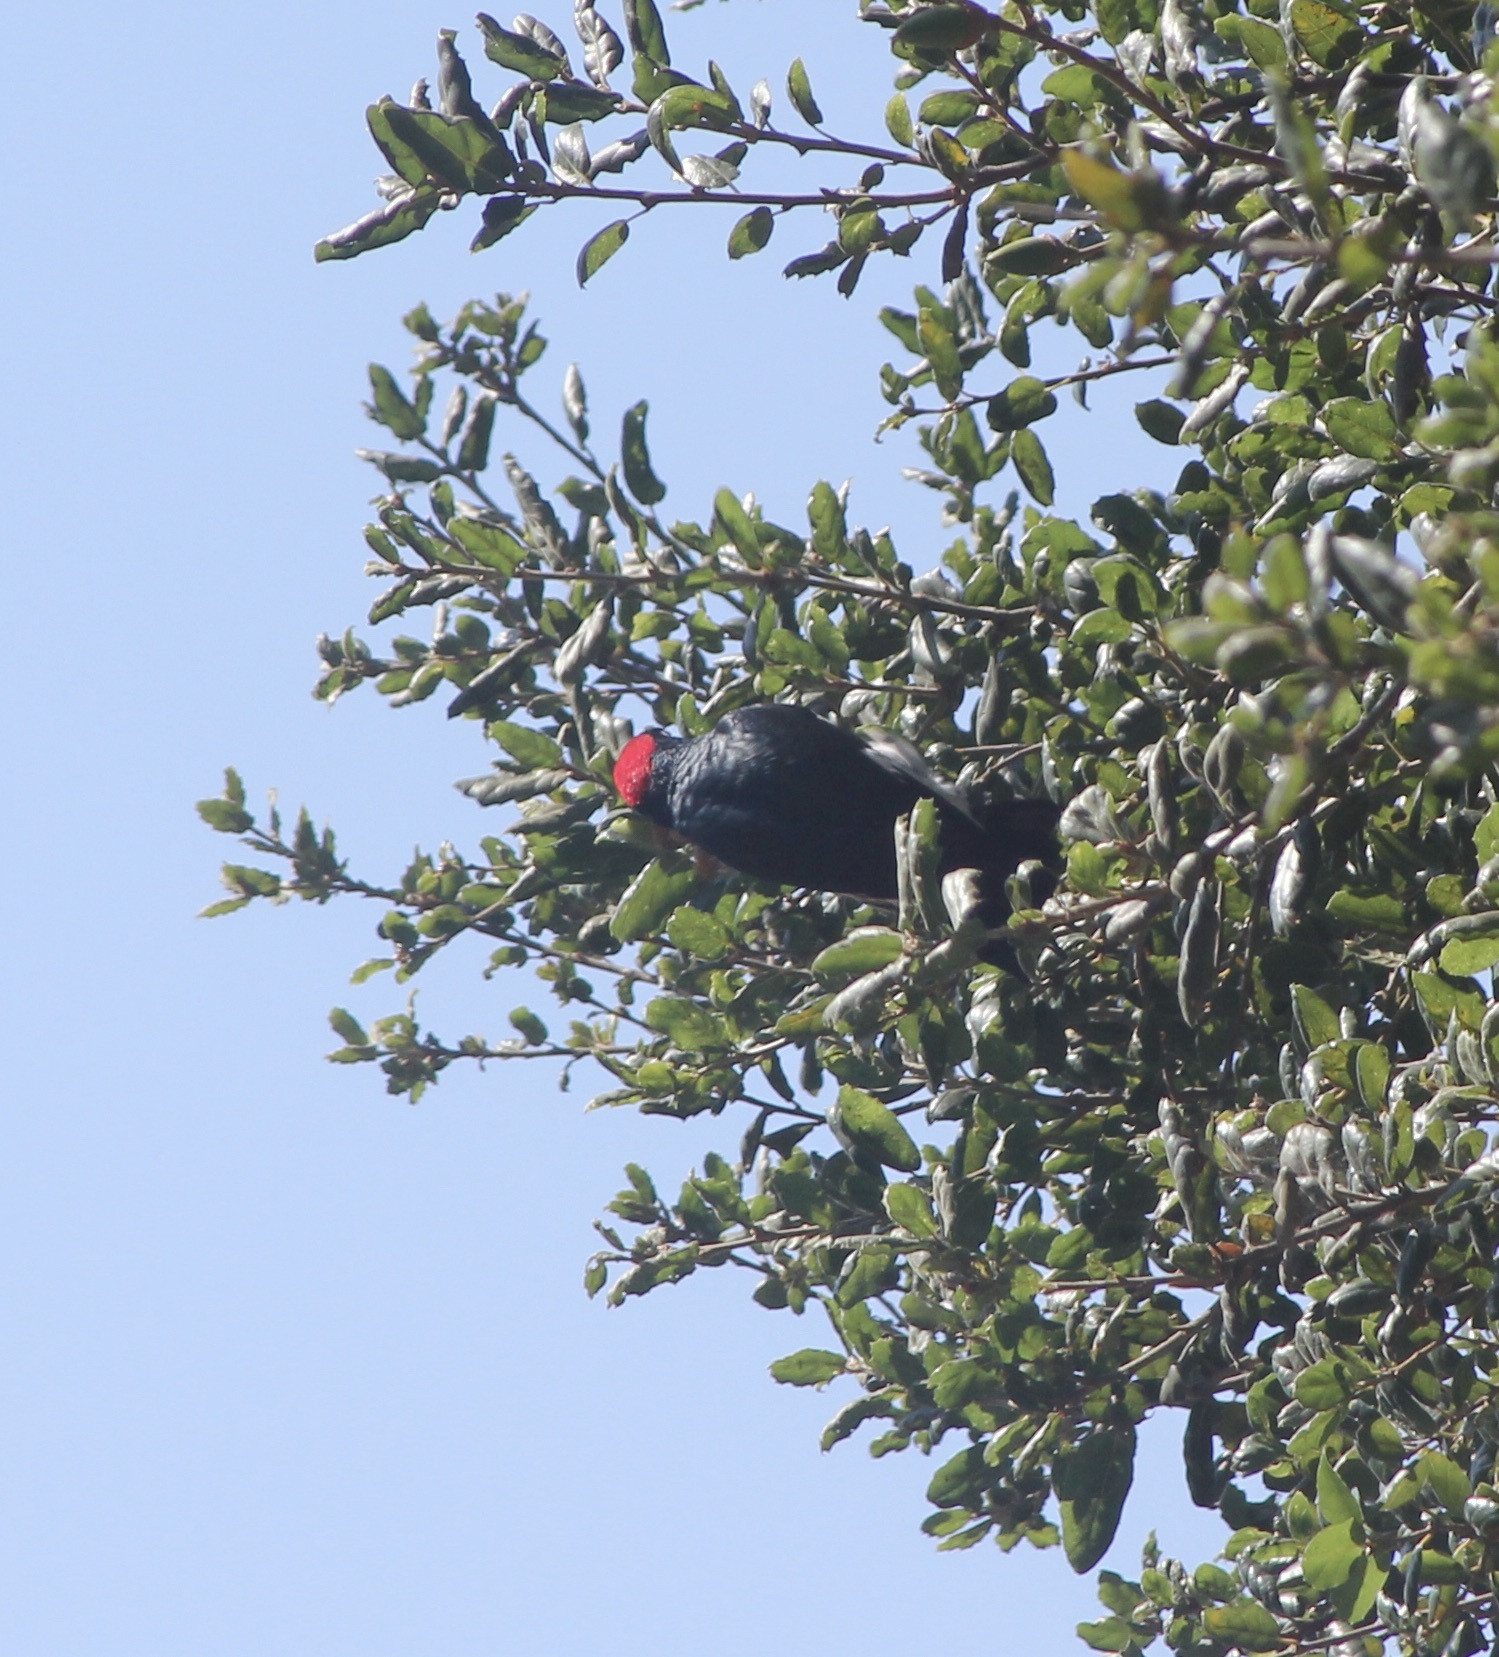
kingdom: Animalia
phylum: Chordata
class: Aves
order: Piciformes
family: Picidae
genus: Melanerpes
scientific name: Melanerpes formicivorus
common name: Acorn woodpecker
